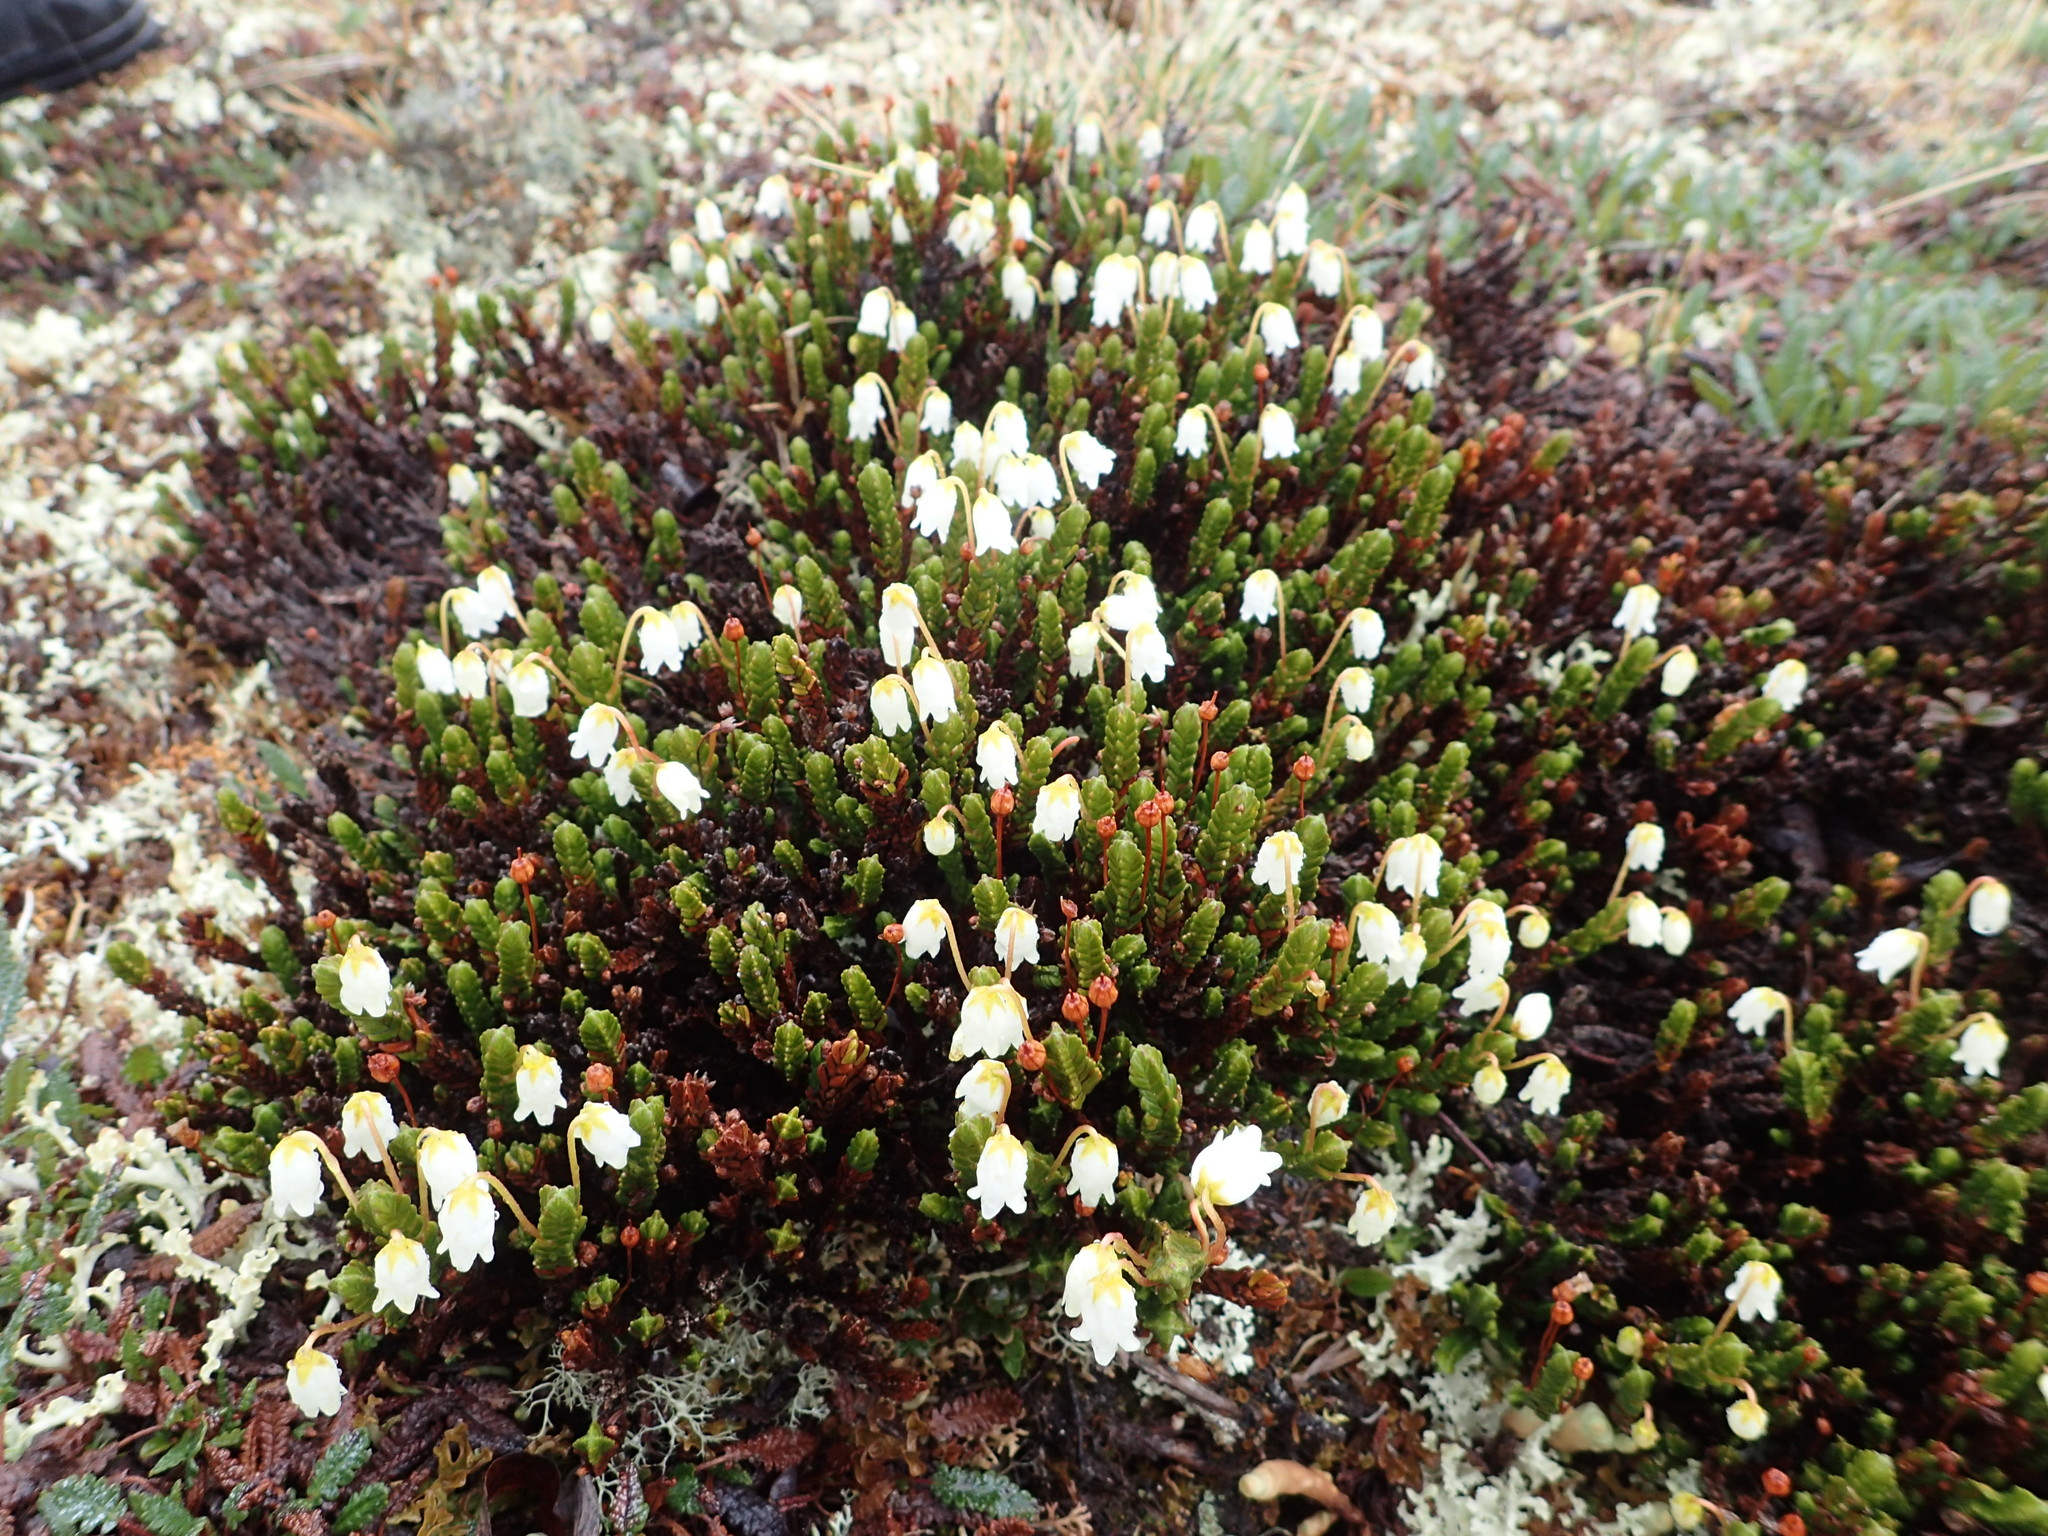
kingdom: Plantae
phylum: Tracheophyta
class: Magnoliopsida
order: Ericales
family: Ericaceae
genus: Cassiope
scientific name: Cassiope tetragona
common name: Arctic bell heather
